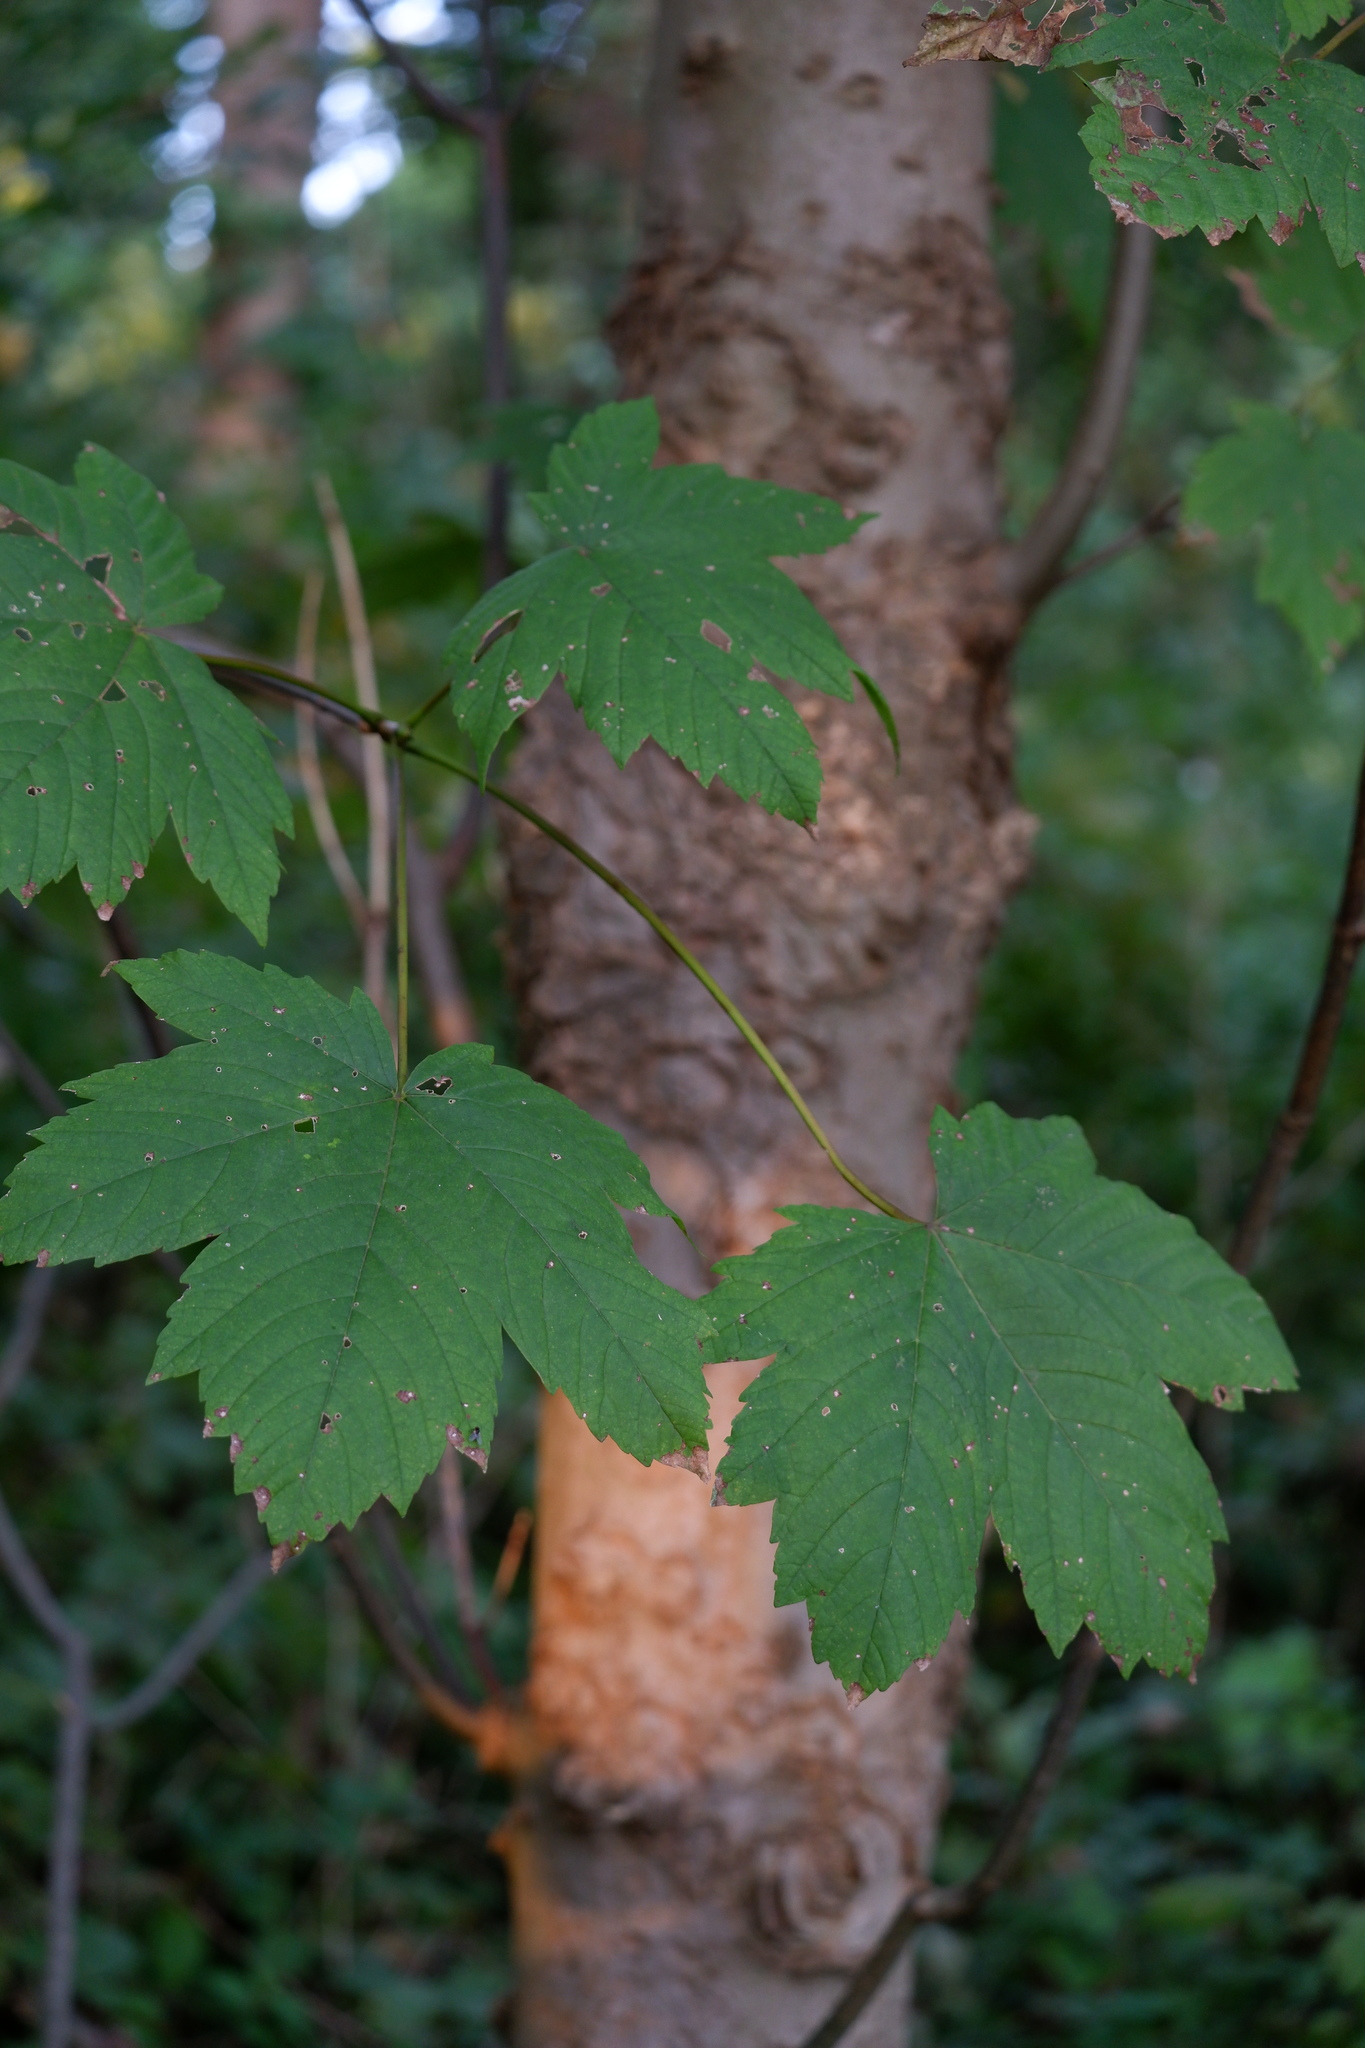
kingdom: Plantae
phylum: Tracheophyta
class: Magnoliopsida
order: Sapindales
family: Sapindaceae
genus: Acer
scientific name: Acer pseudoplatanus
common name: Sycamore
